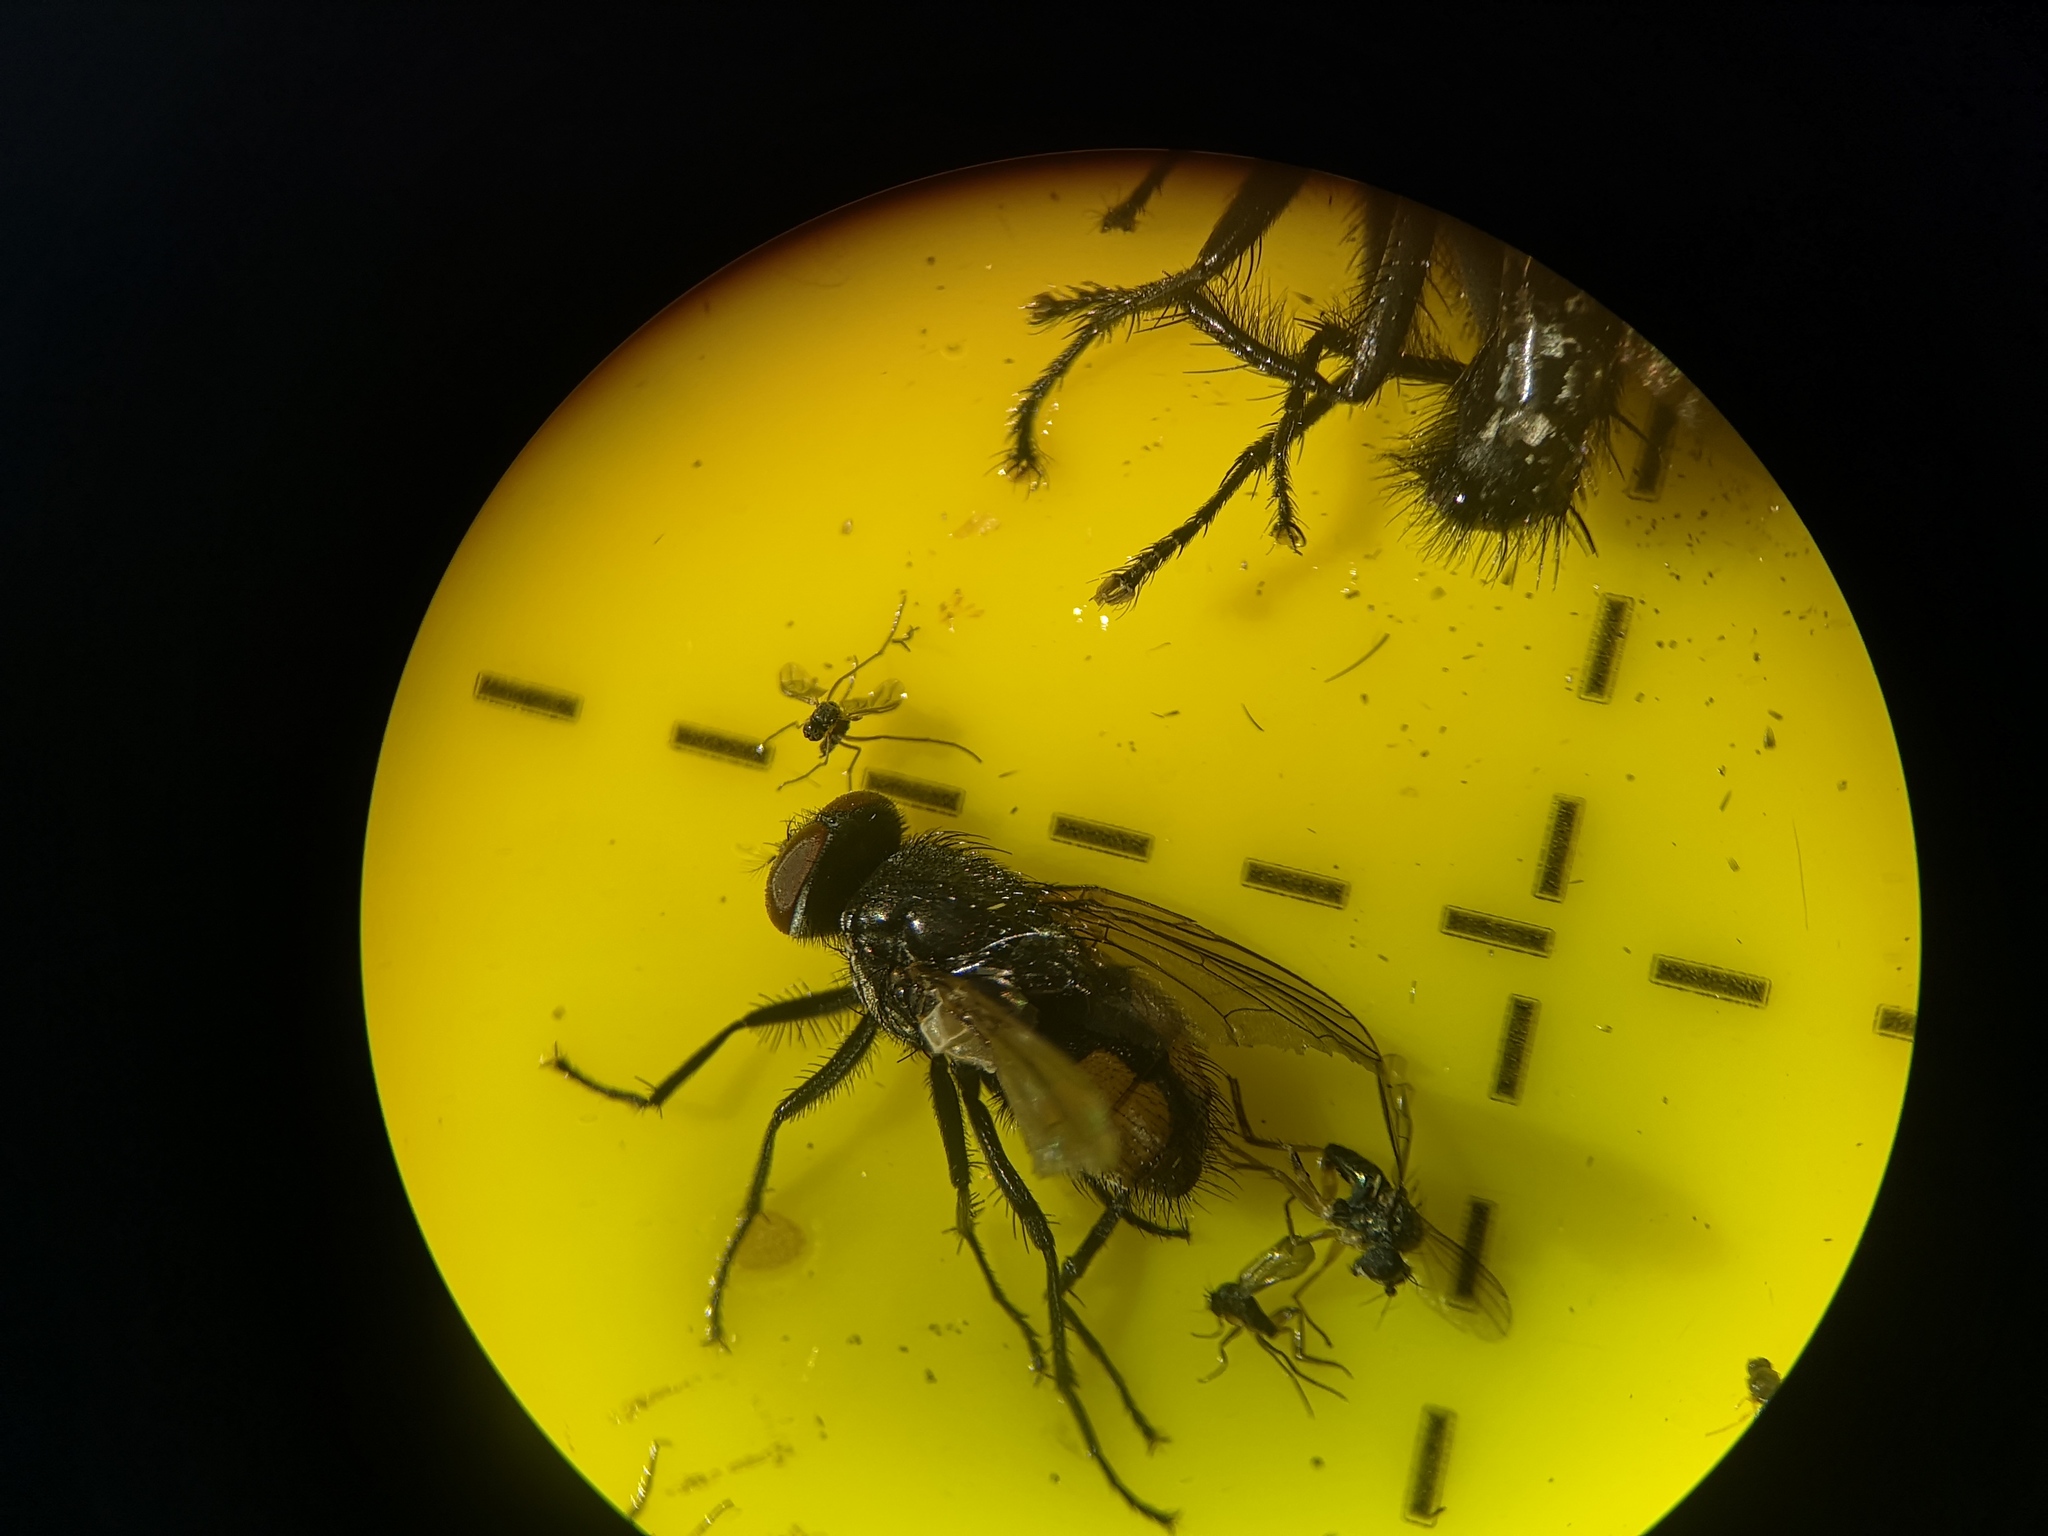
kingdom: Animalia
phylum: Arthropoda
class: Insecta
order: Diptera
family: Muscidae
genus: Musca
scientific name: Musca autumnalis
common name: Face fly
